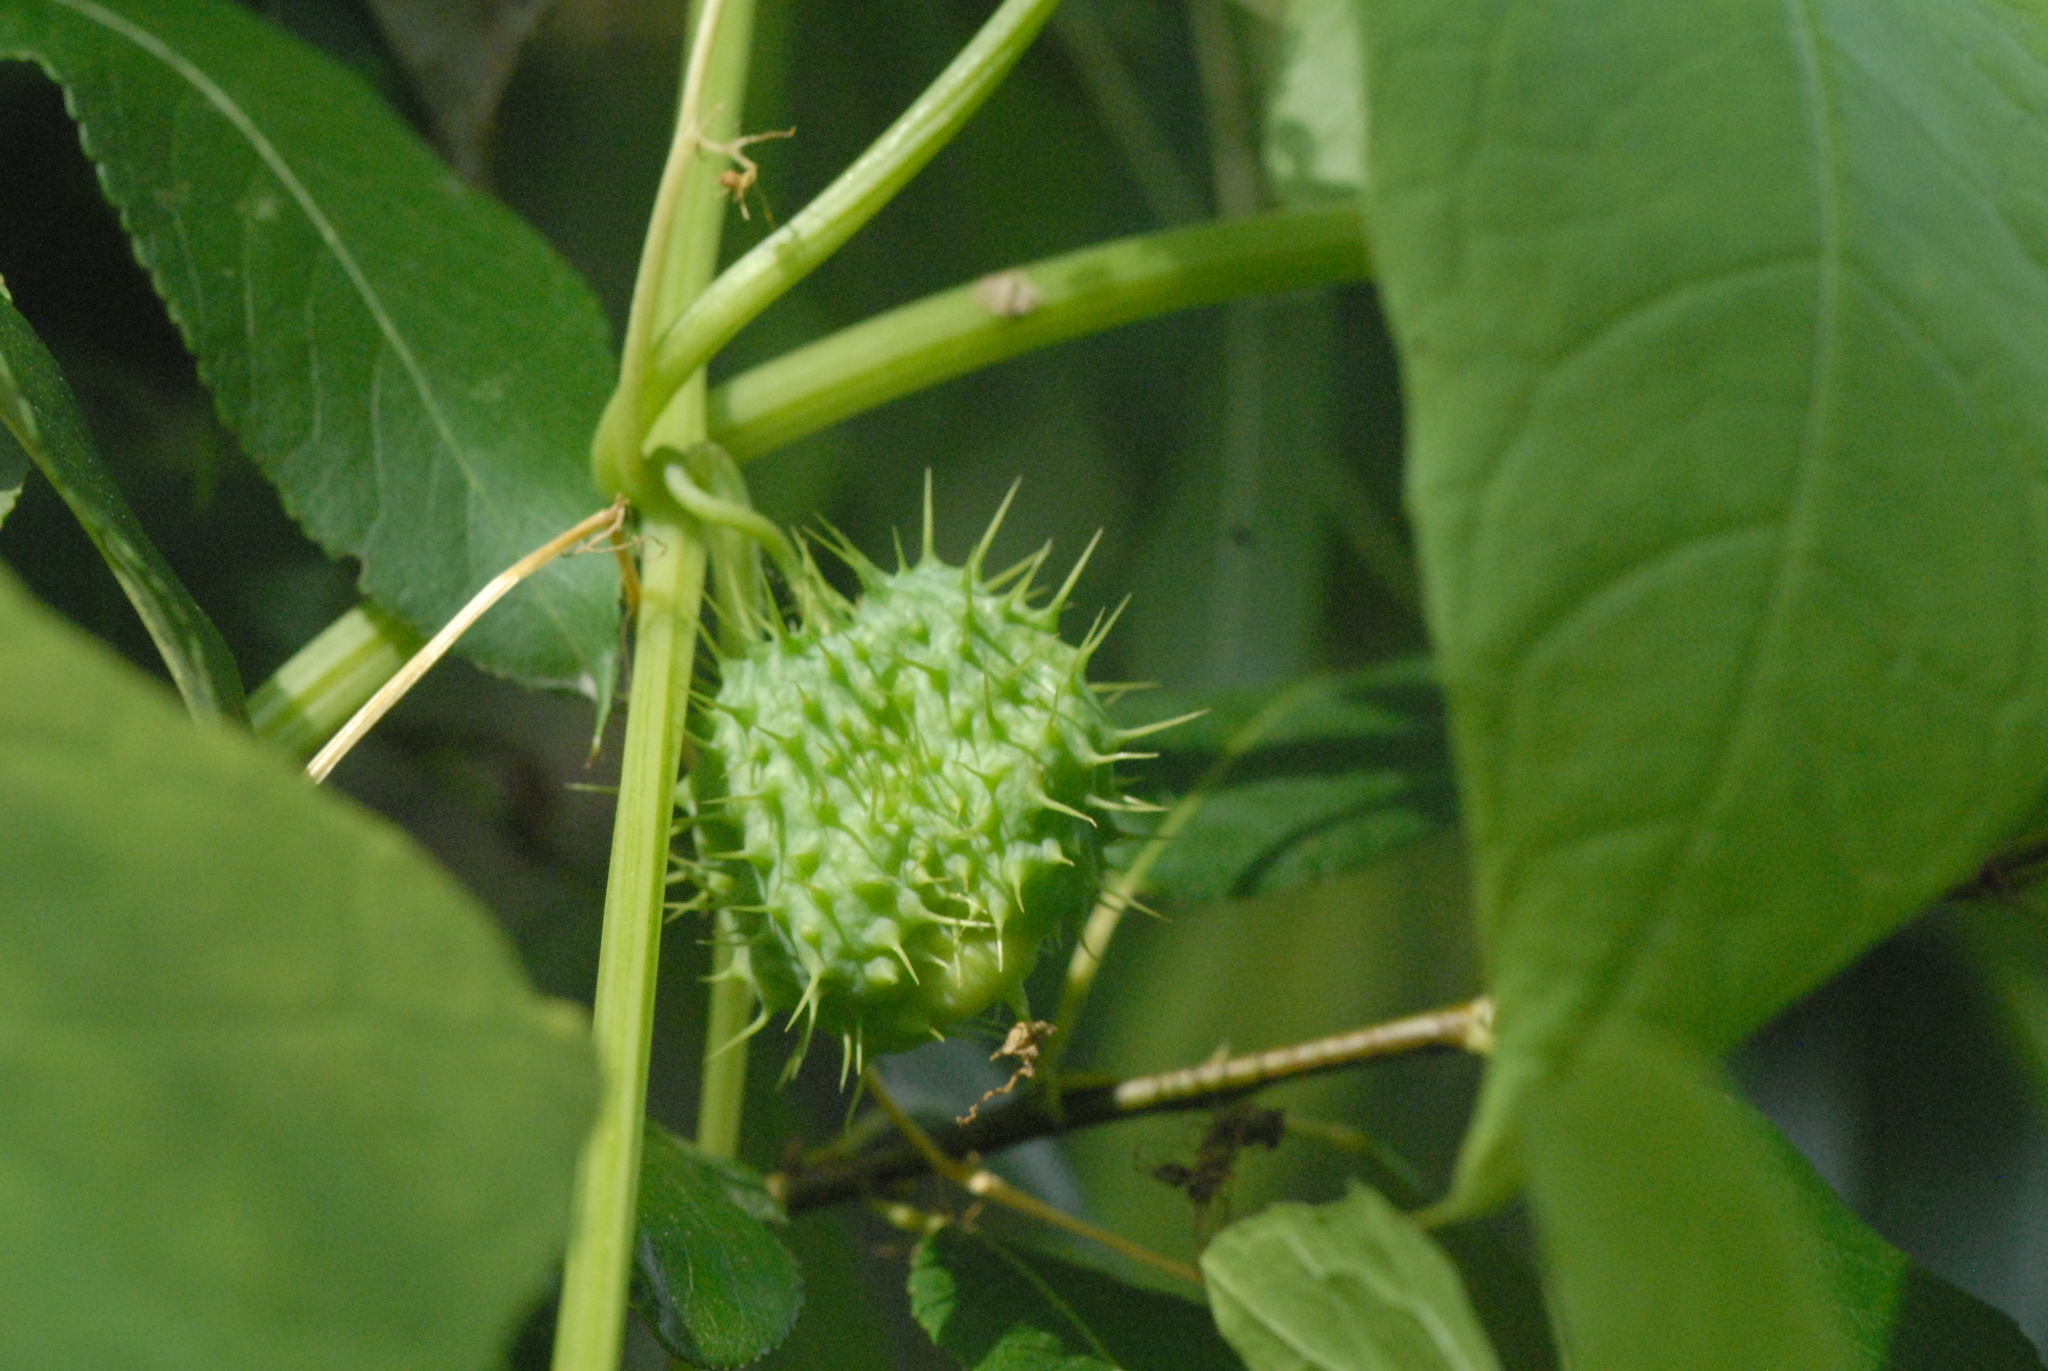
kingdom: Plantae
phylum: Tracheophyta
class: Magnoliopsida
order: Cucurbitales
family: Cucurbitaceae
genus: Echinocystis
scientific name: Echinocystis lobata
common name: Wild cucumber
